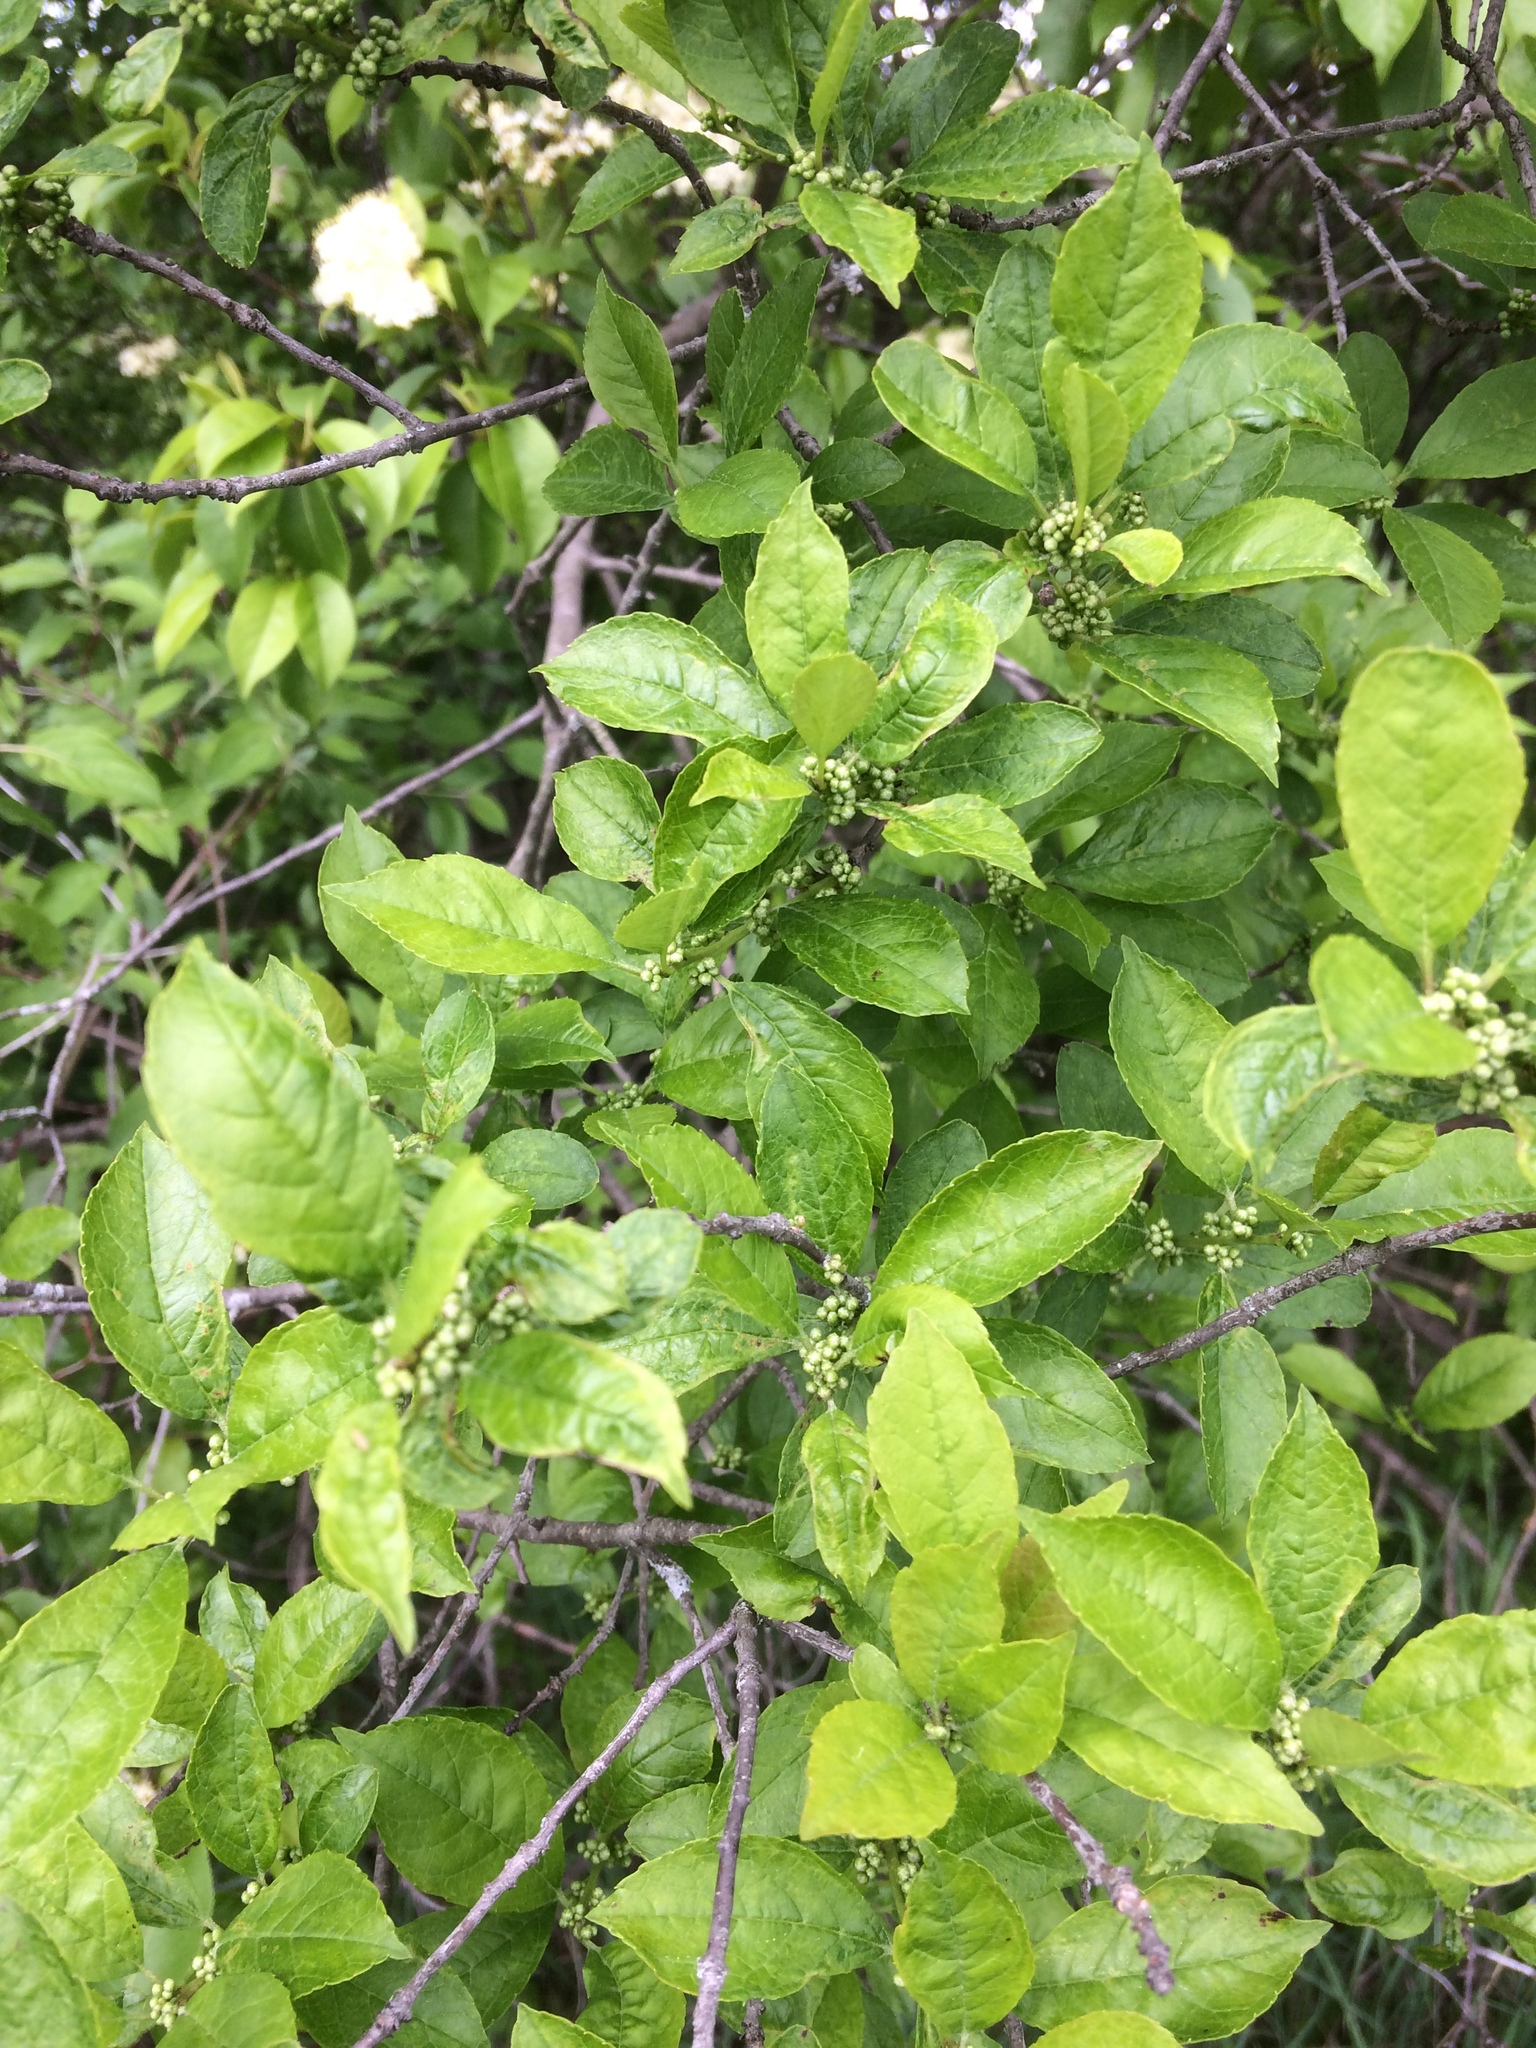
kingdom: Plantae
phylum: Tracheophyta
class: Magnoliopsida
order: Aquifoliales
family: Aquifoliaceae
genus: Ilex
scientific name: Ilex verticillata
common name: Virginia winterberry
